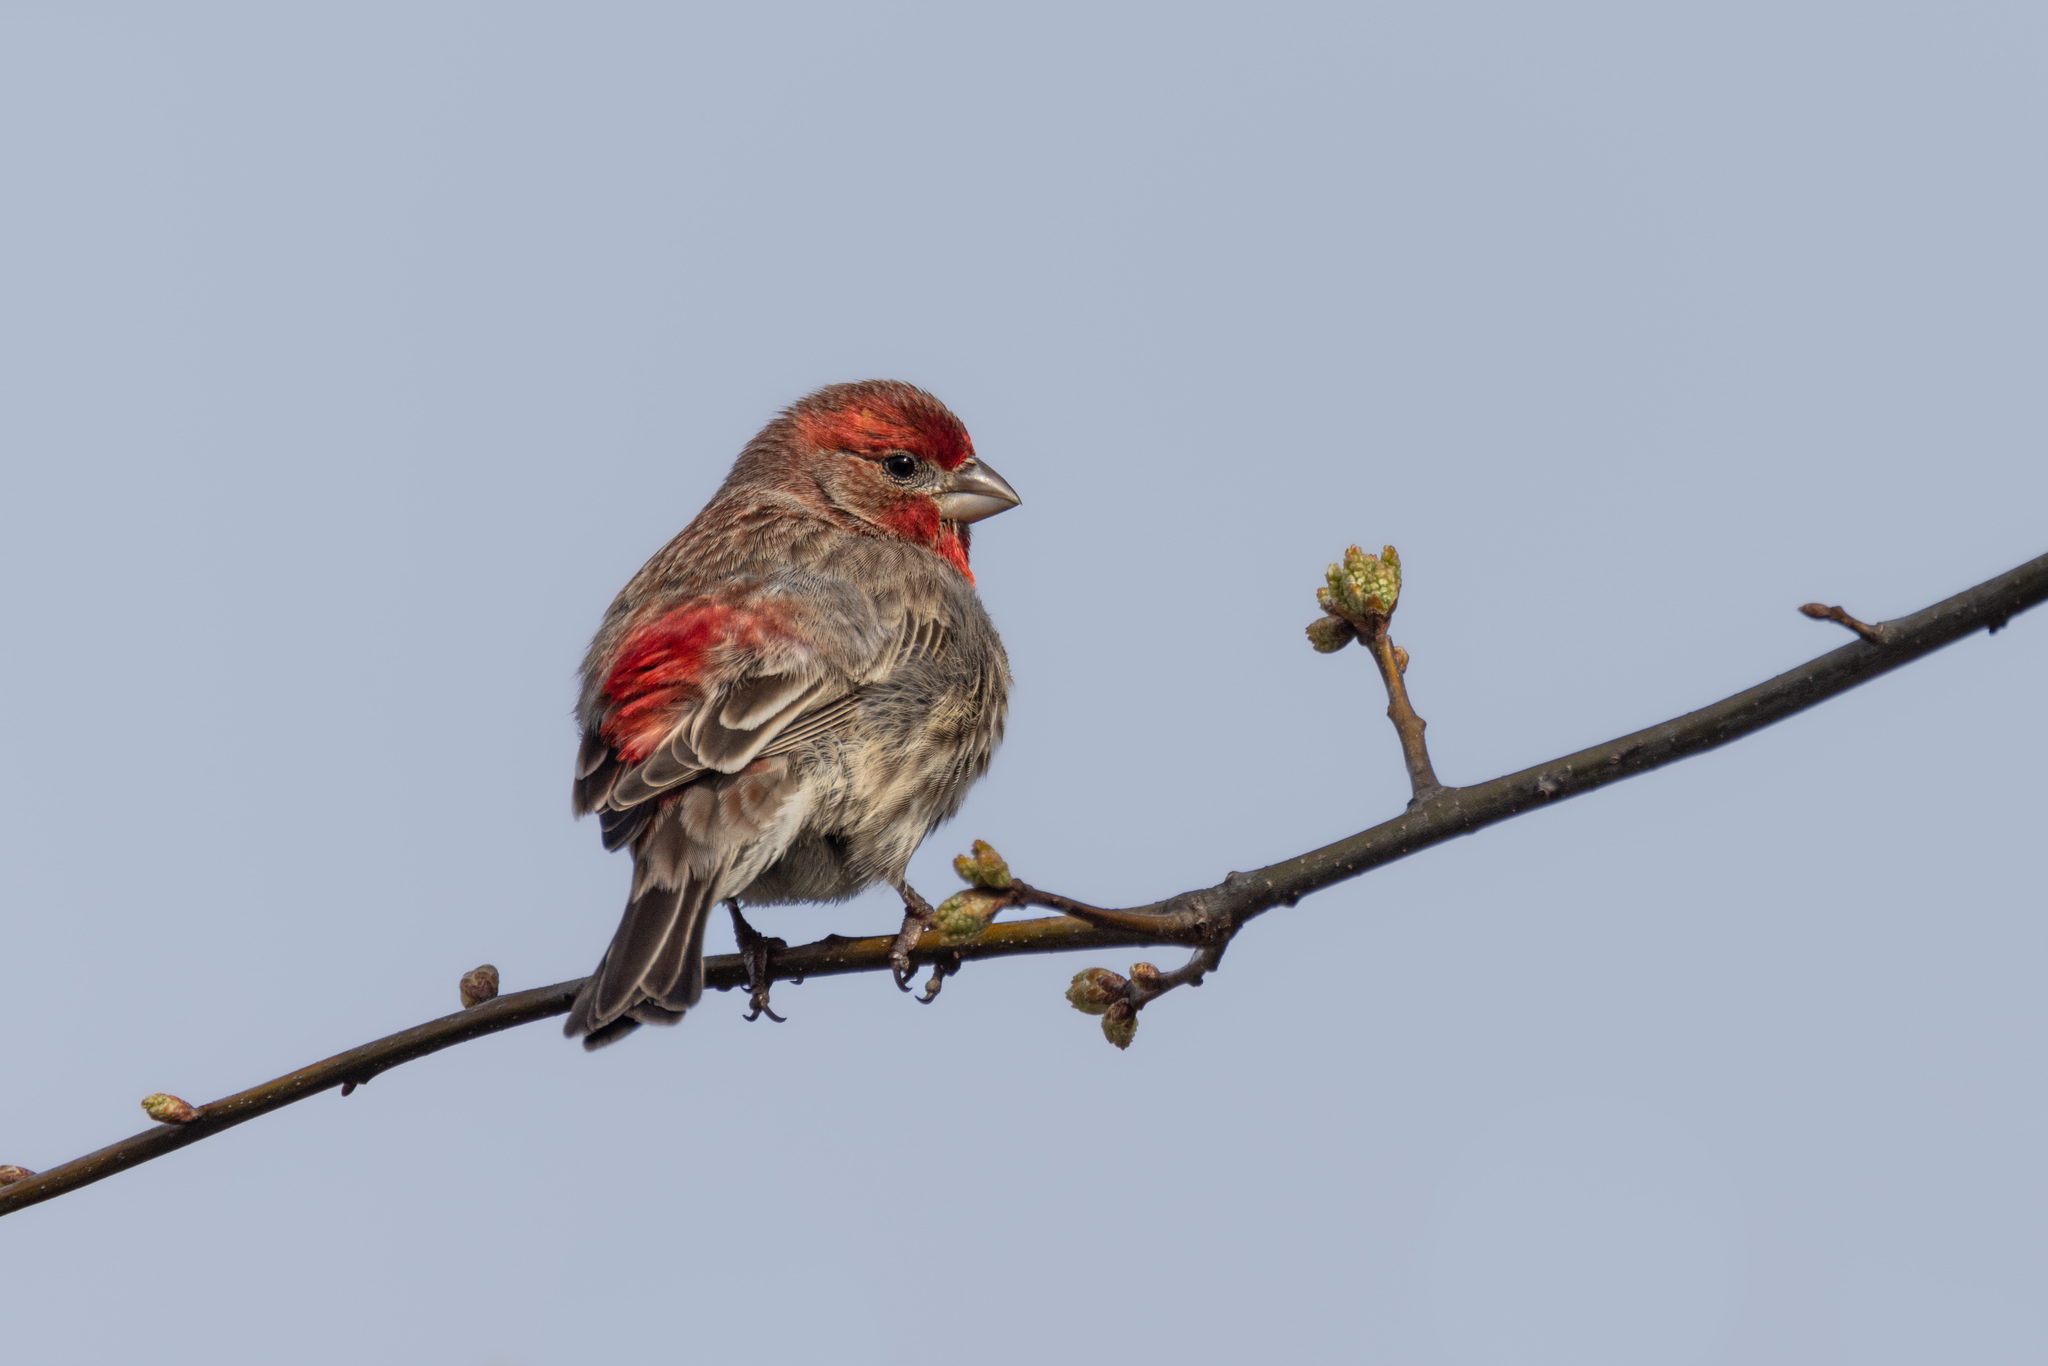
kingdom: Animalia
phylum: Chordata
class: Aves
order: Passeriformes
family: Fringillidae
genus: Haemorhous
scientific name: Haemorhous mexicanus
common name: House finch
